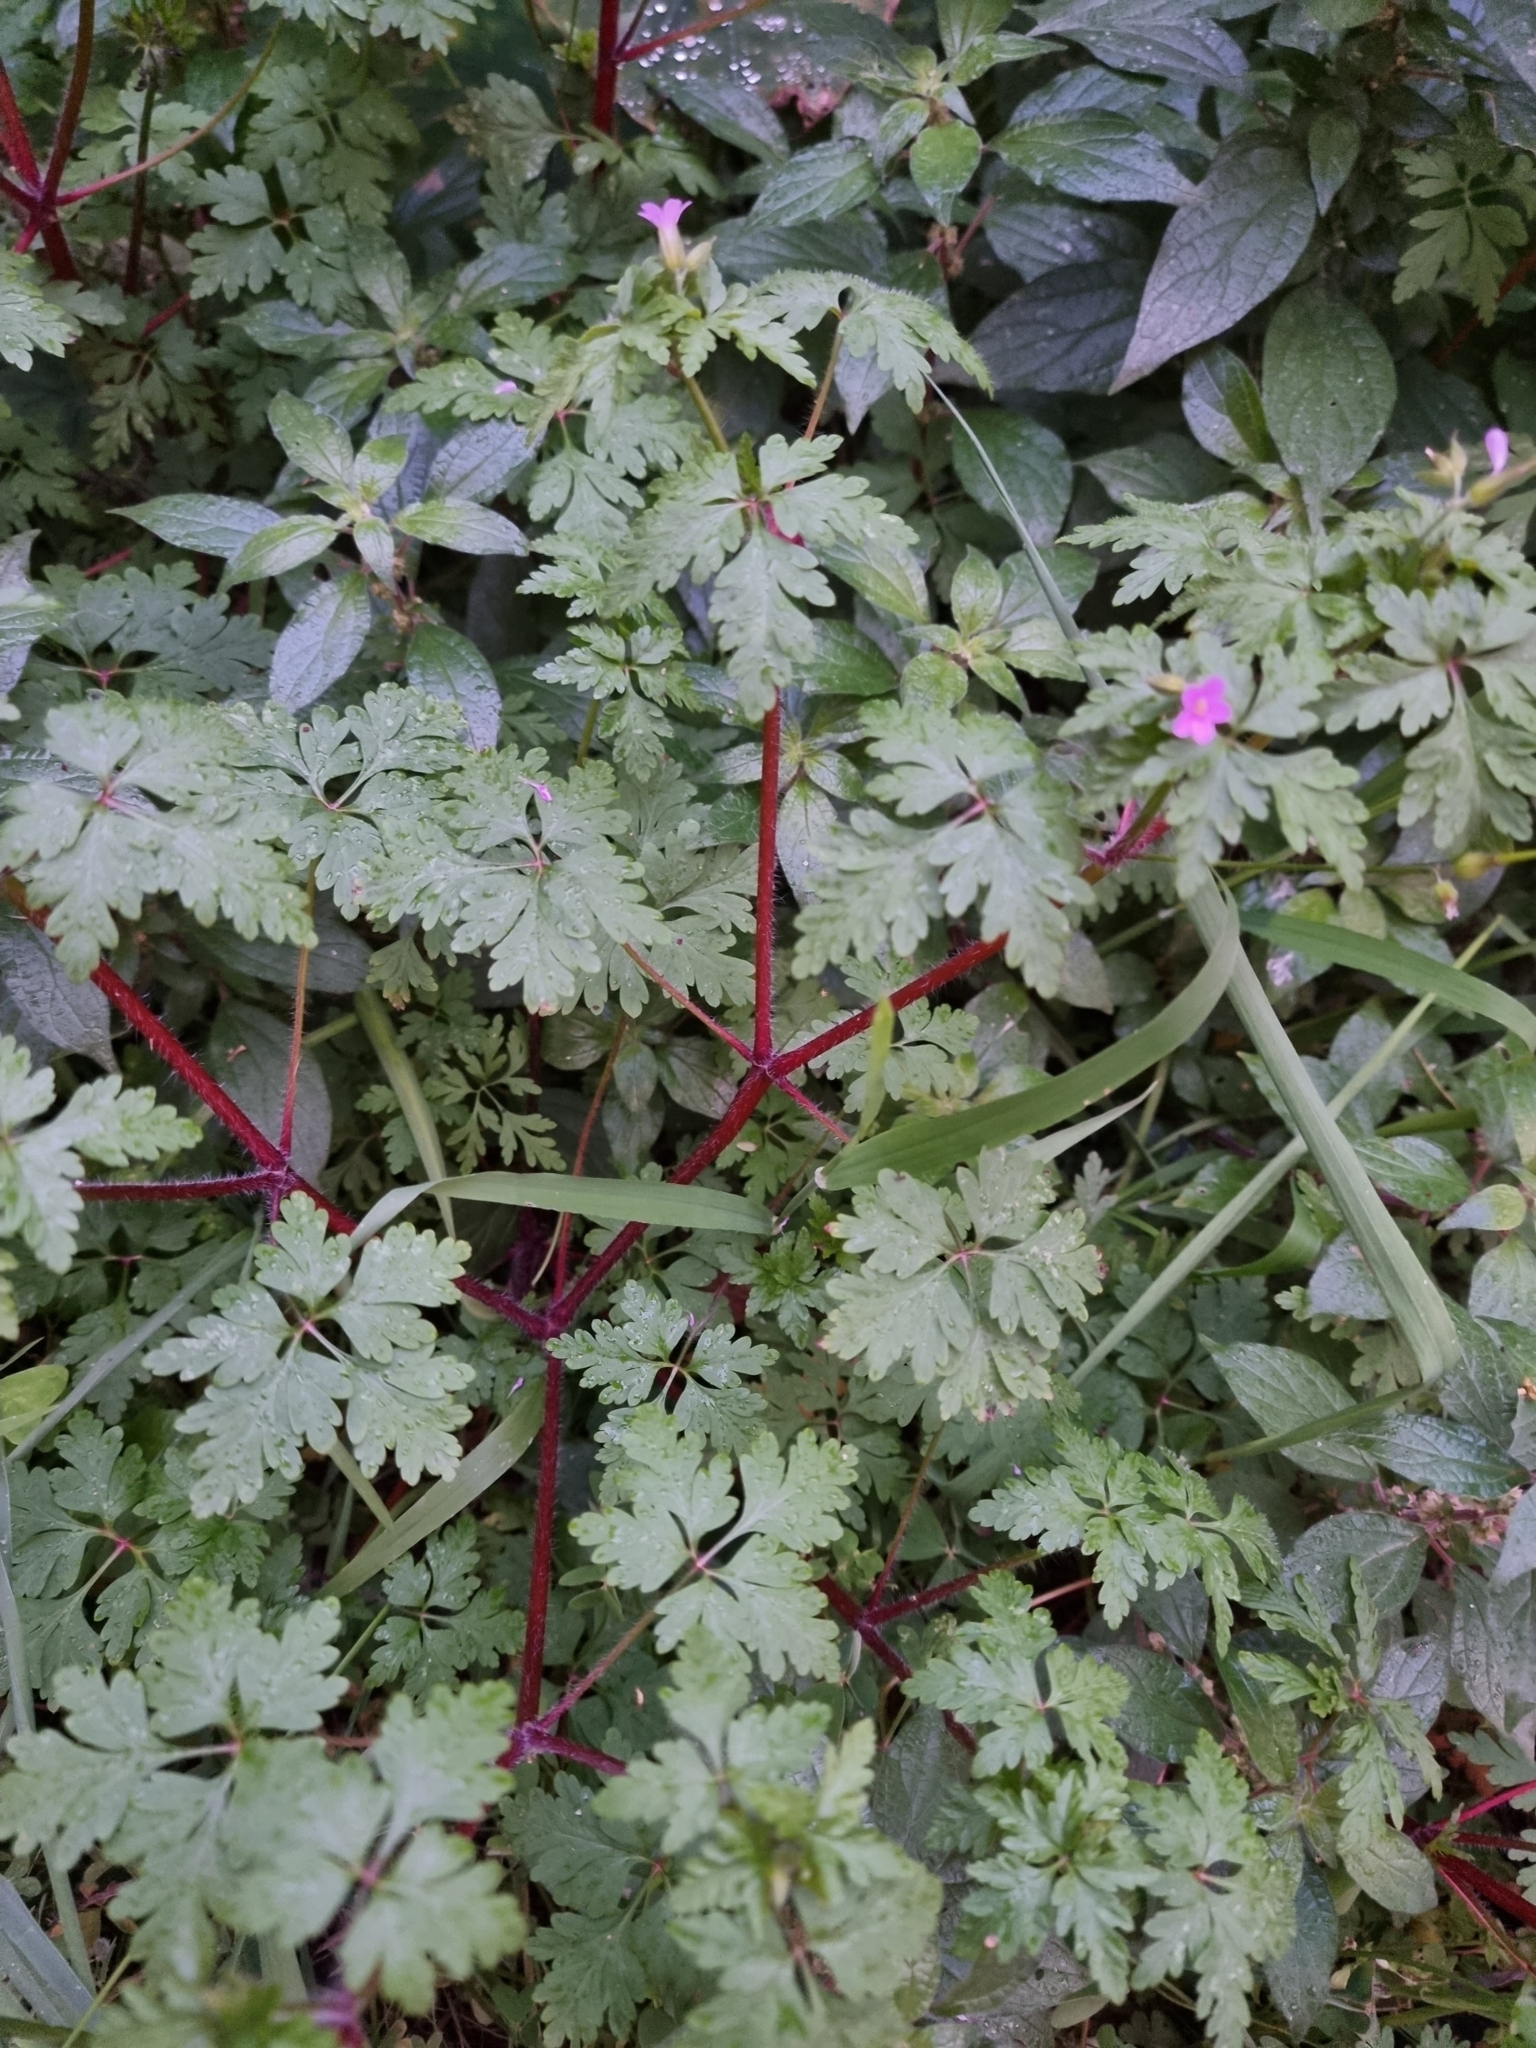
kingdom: Plantae
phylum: Tracheophyta
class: Magnoliopsida
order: Geraniales
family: Geraniaceae
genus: Geranium
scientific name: Geranium purpureum
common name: Little-robin
